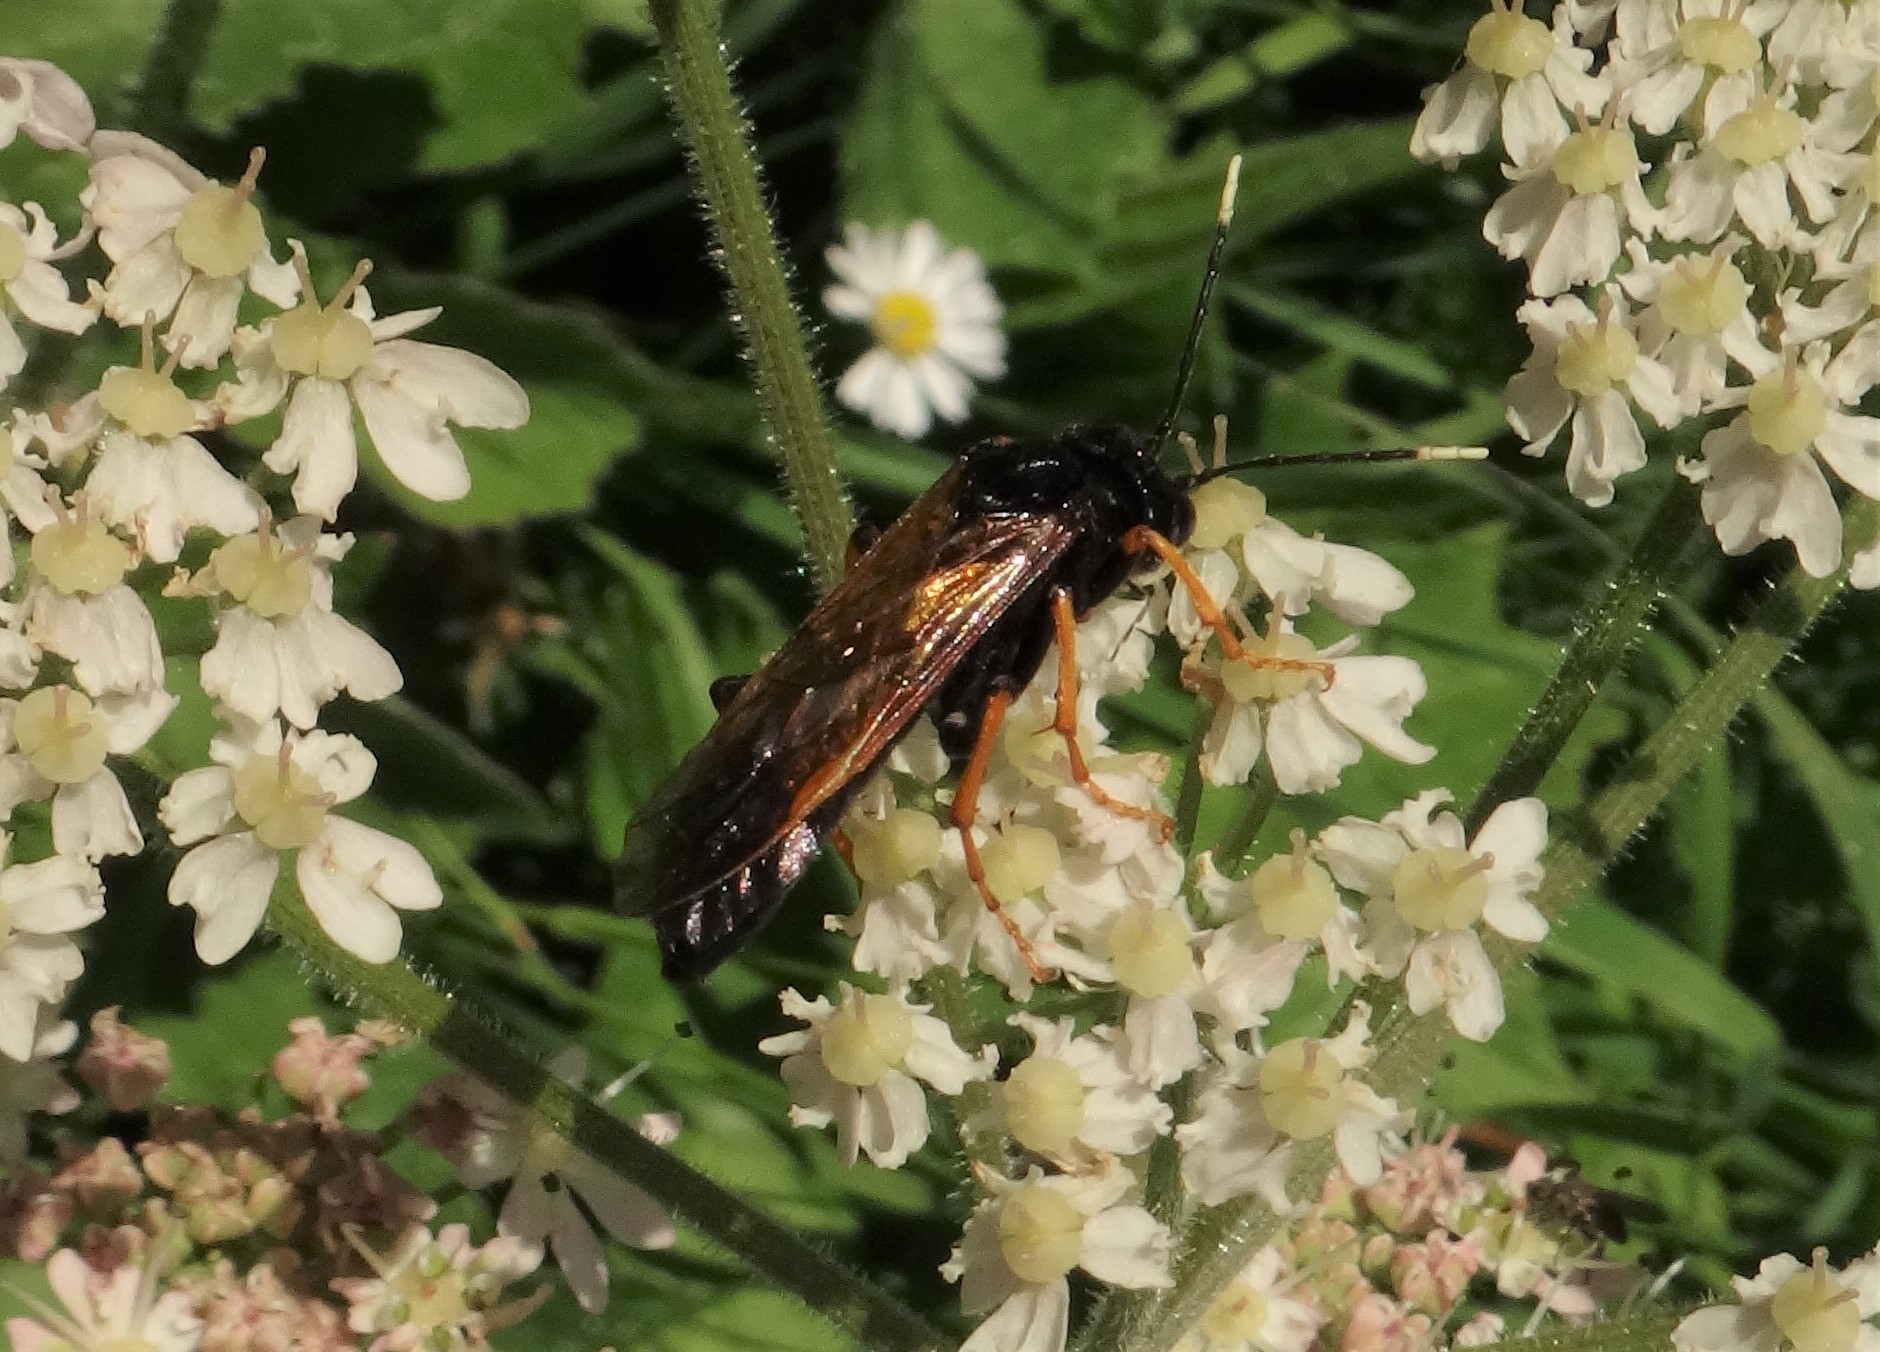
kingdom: Animalia
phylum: Arthropoda
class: Insecta
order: Hymenoptera
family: Tenthredinidae
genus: Tenthredo
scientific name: Tenthredo crassa
